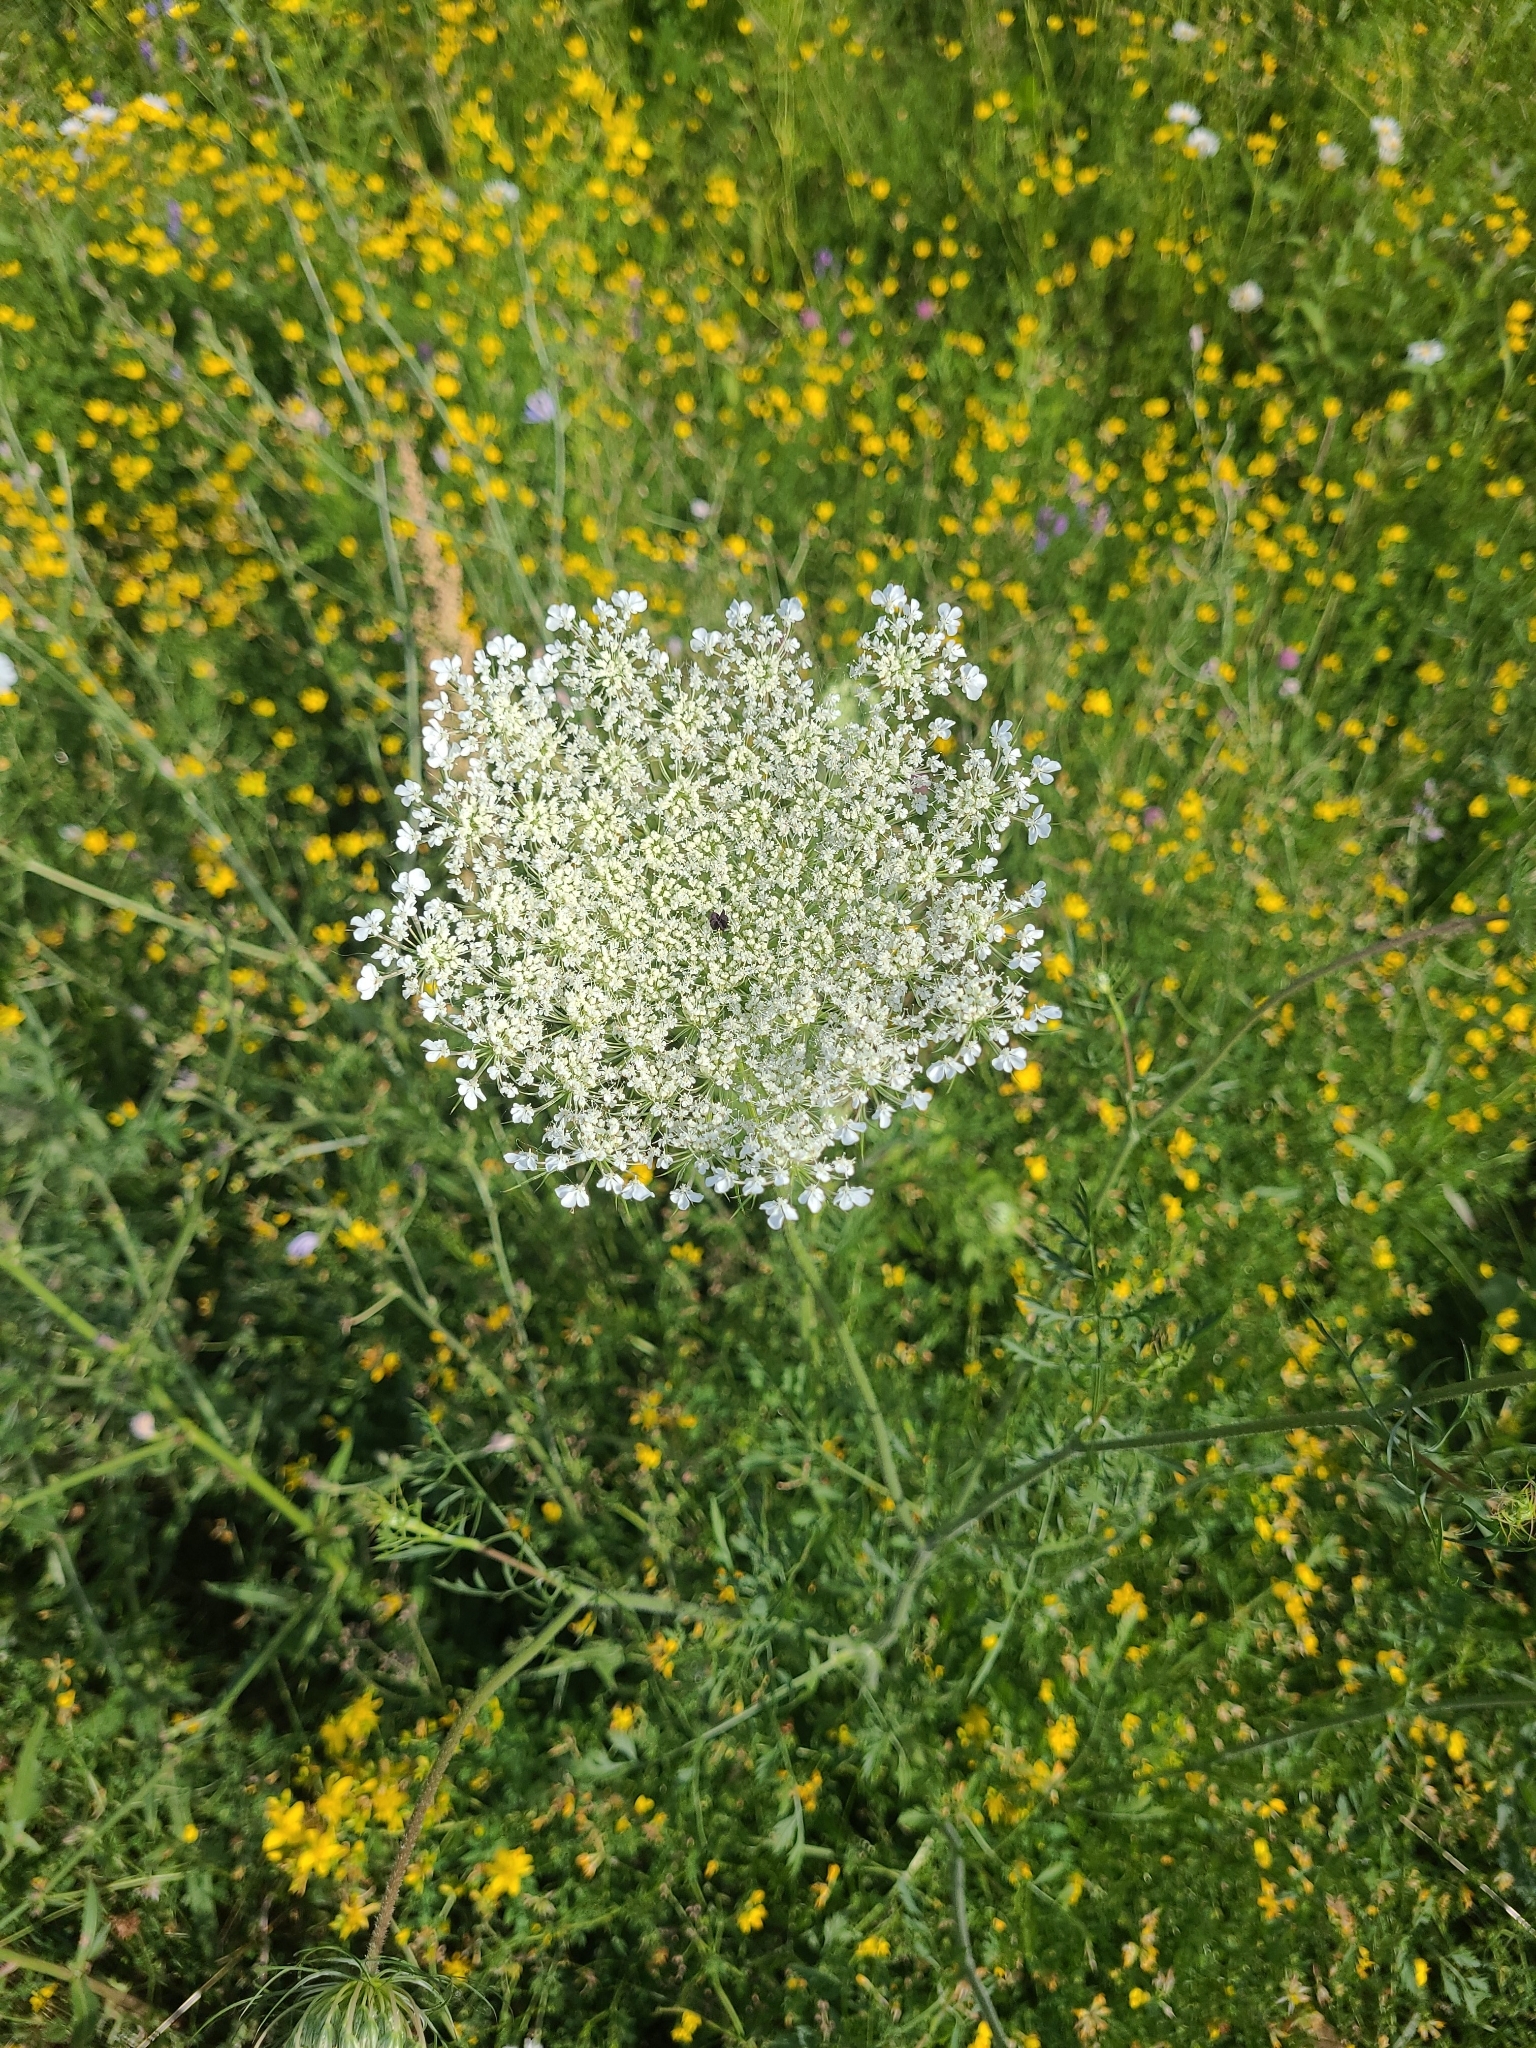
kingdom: Plantae
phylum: Tracheophyta
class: Magnoliopsida
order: Apiales
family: Apiaceae
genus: Daucus
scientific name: Daucus carota
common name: Wild carrot
